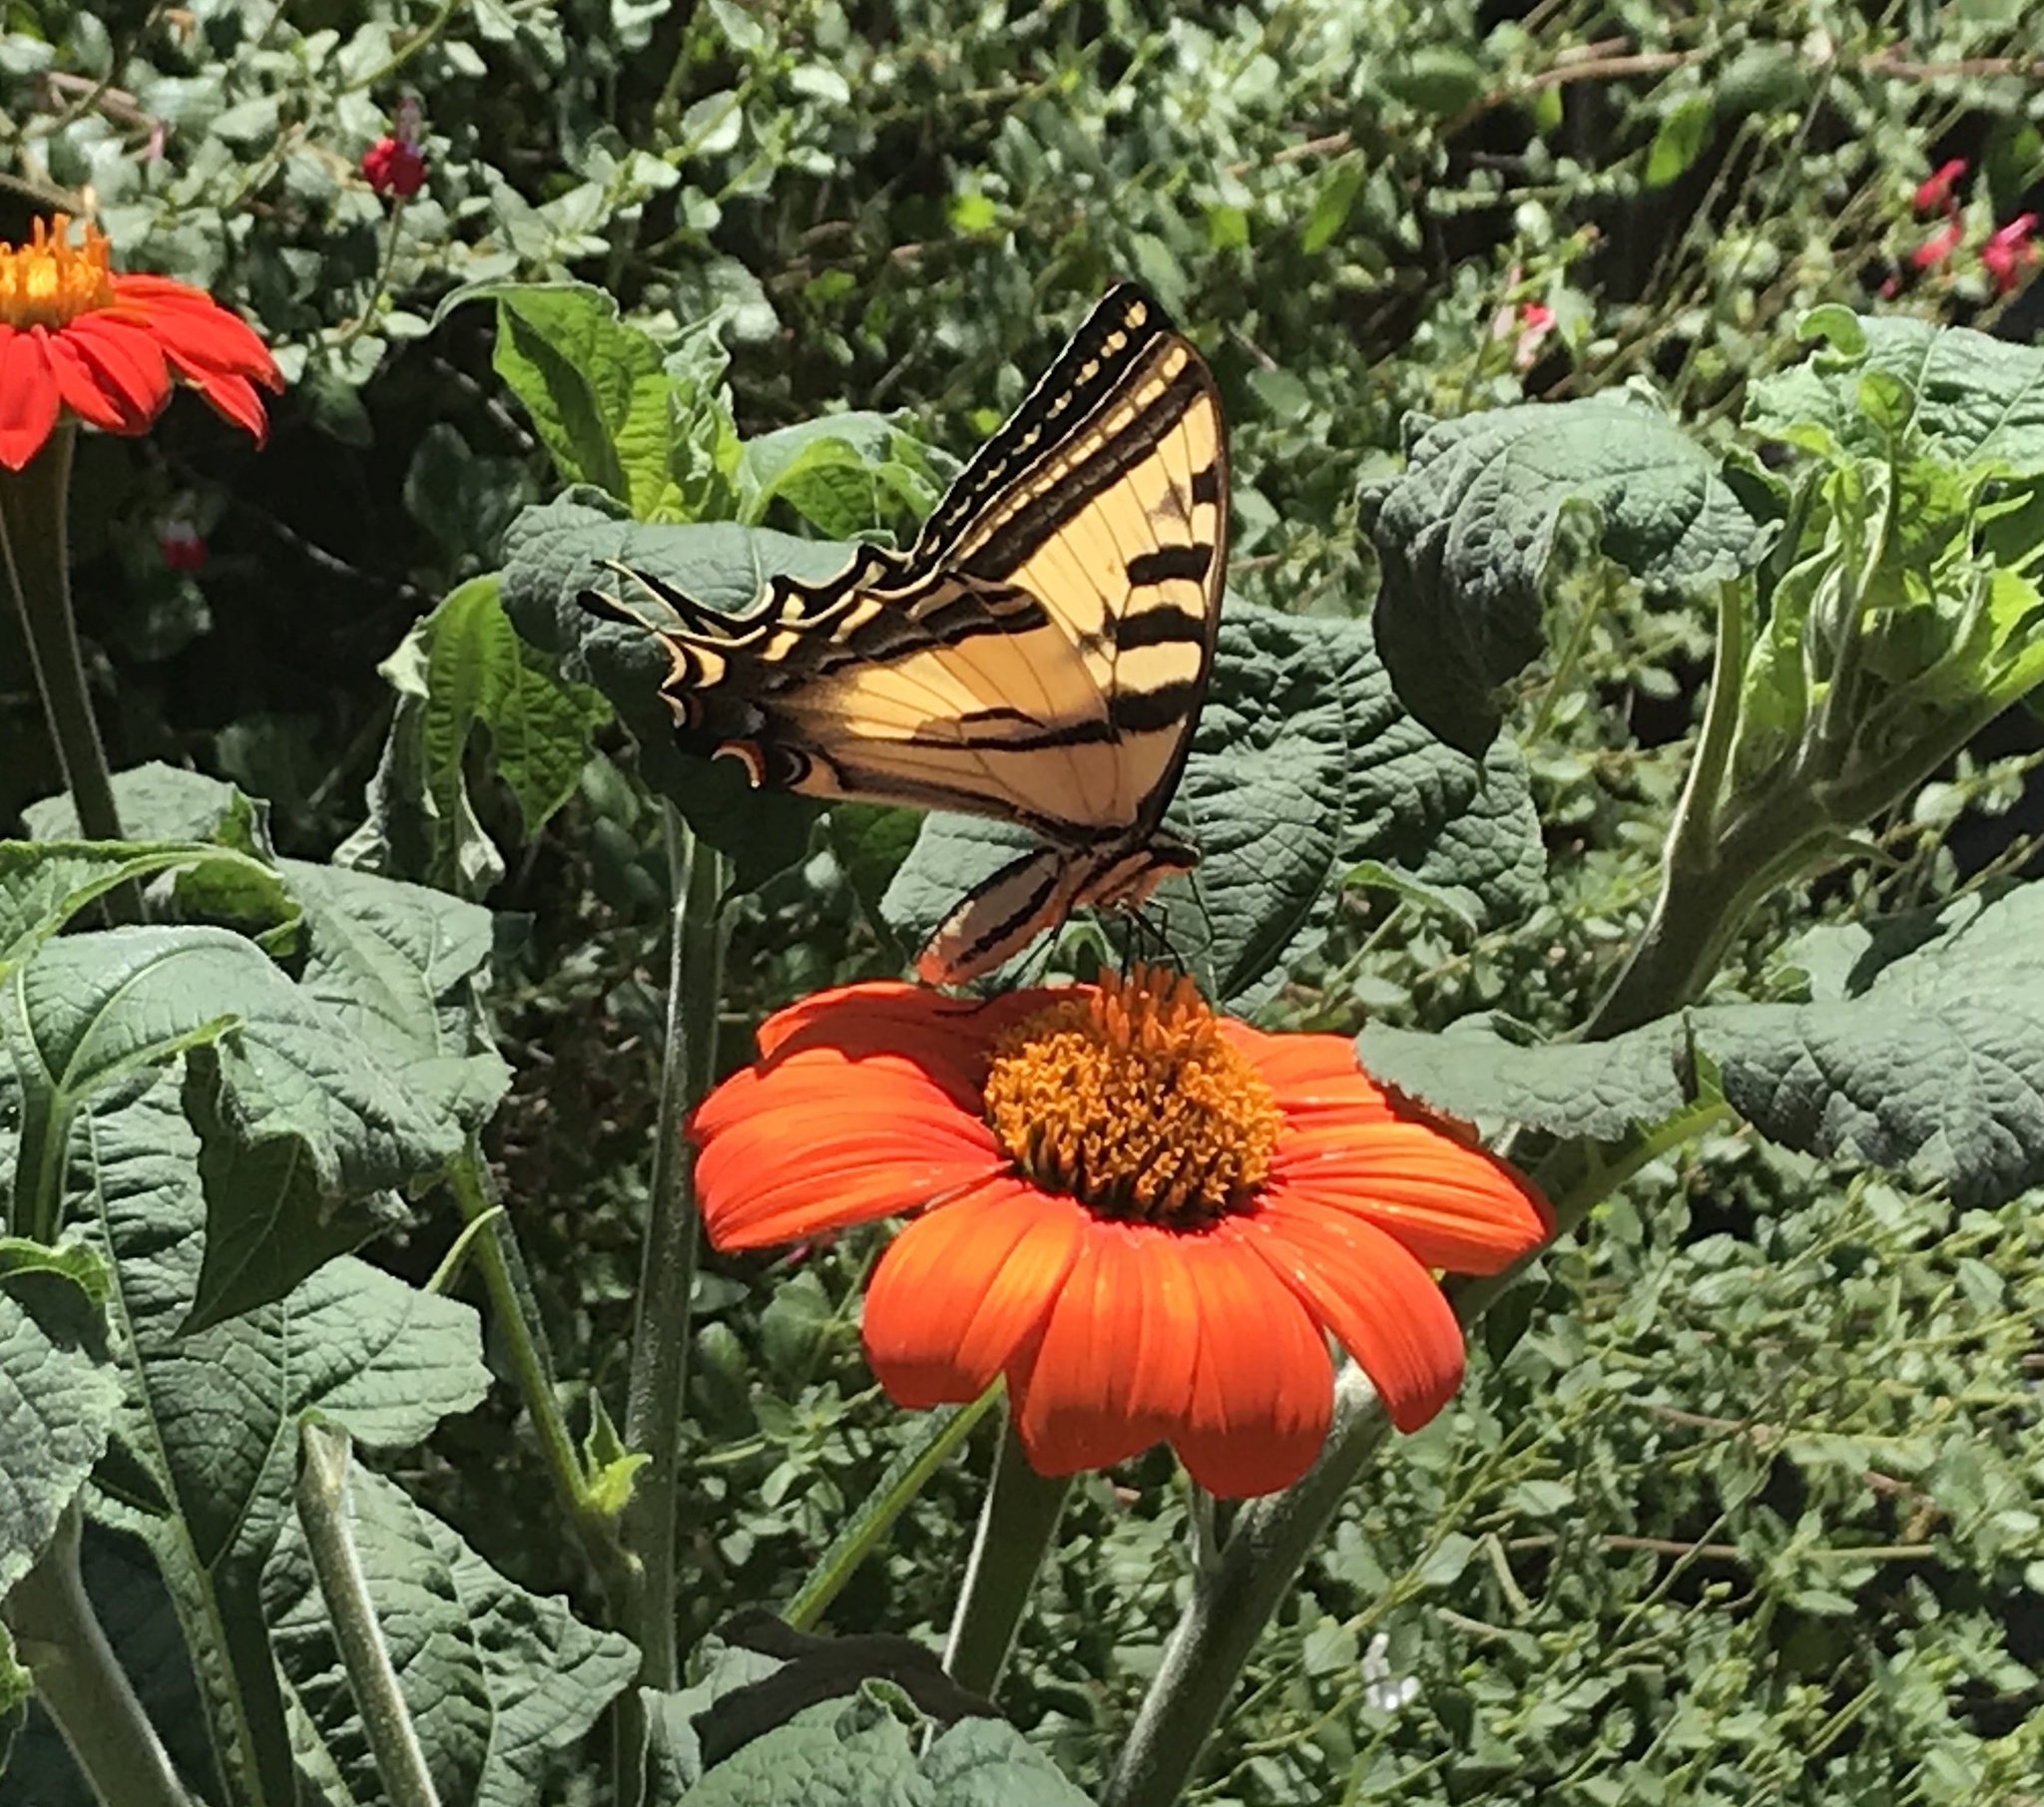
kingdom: Animalia
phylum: Arthropoda
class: Insecta
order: Lepidoptera
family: Papilionidae
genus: Papilio
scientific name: Papilio rutulus
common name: Western tiger swallowtail
